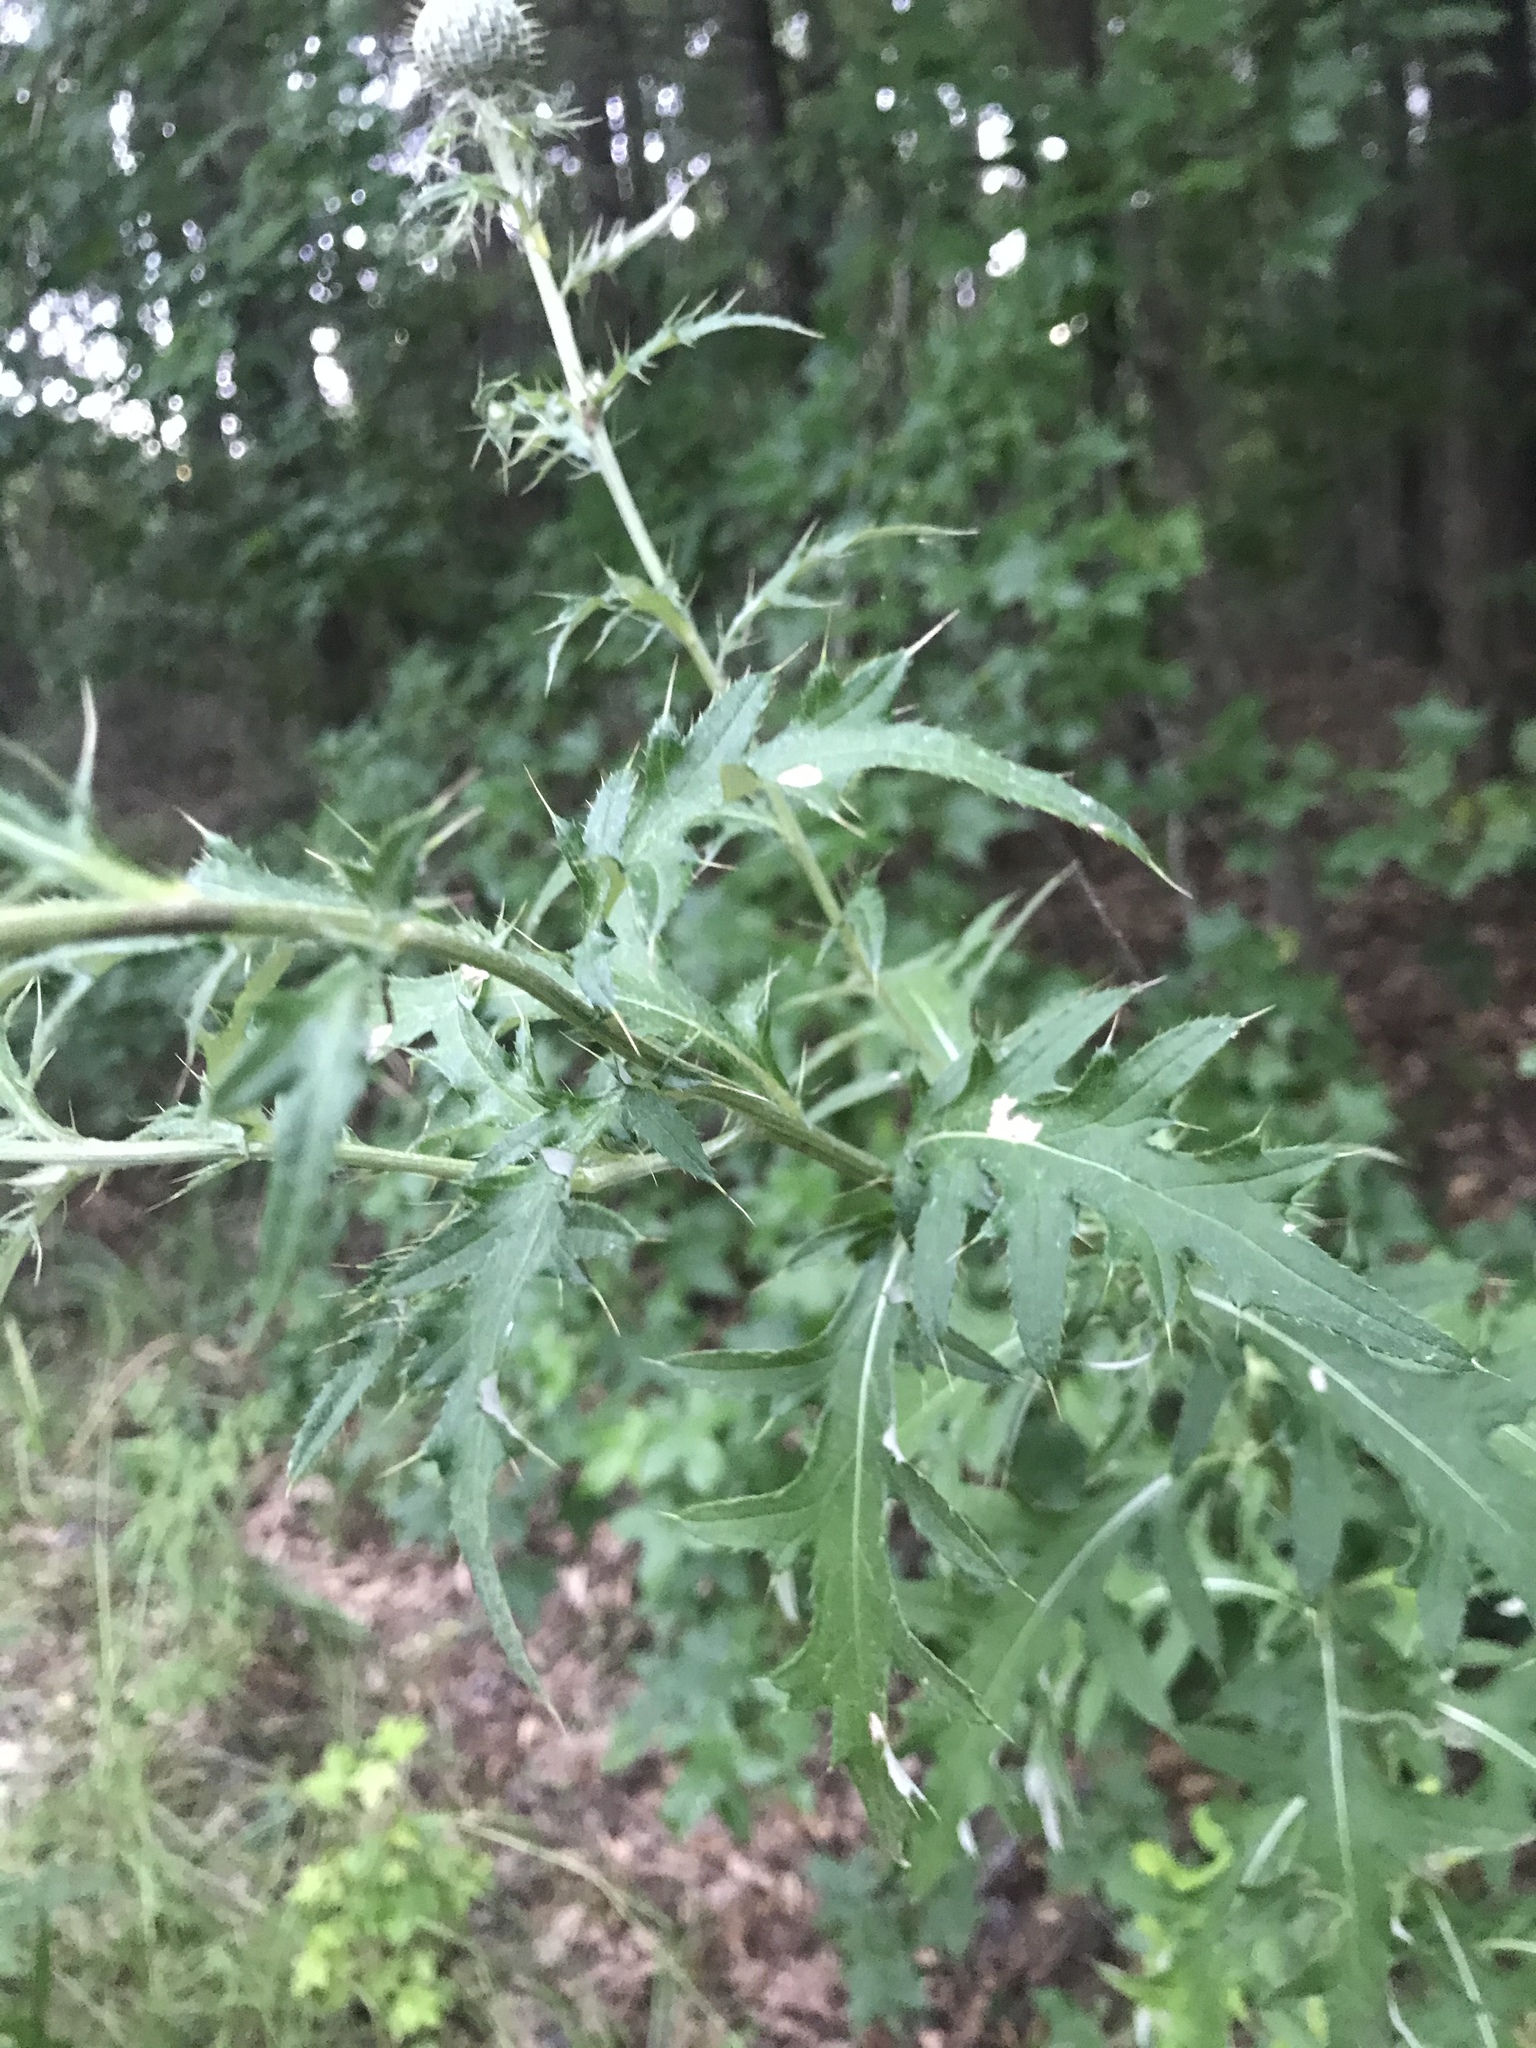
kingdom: Plantae
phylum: Tracheophyta
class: Magnoliopsida
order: Asterales
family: Asteraceae
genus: Cirsium
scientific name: Cirsium texanum
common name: Texas purple thistle
